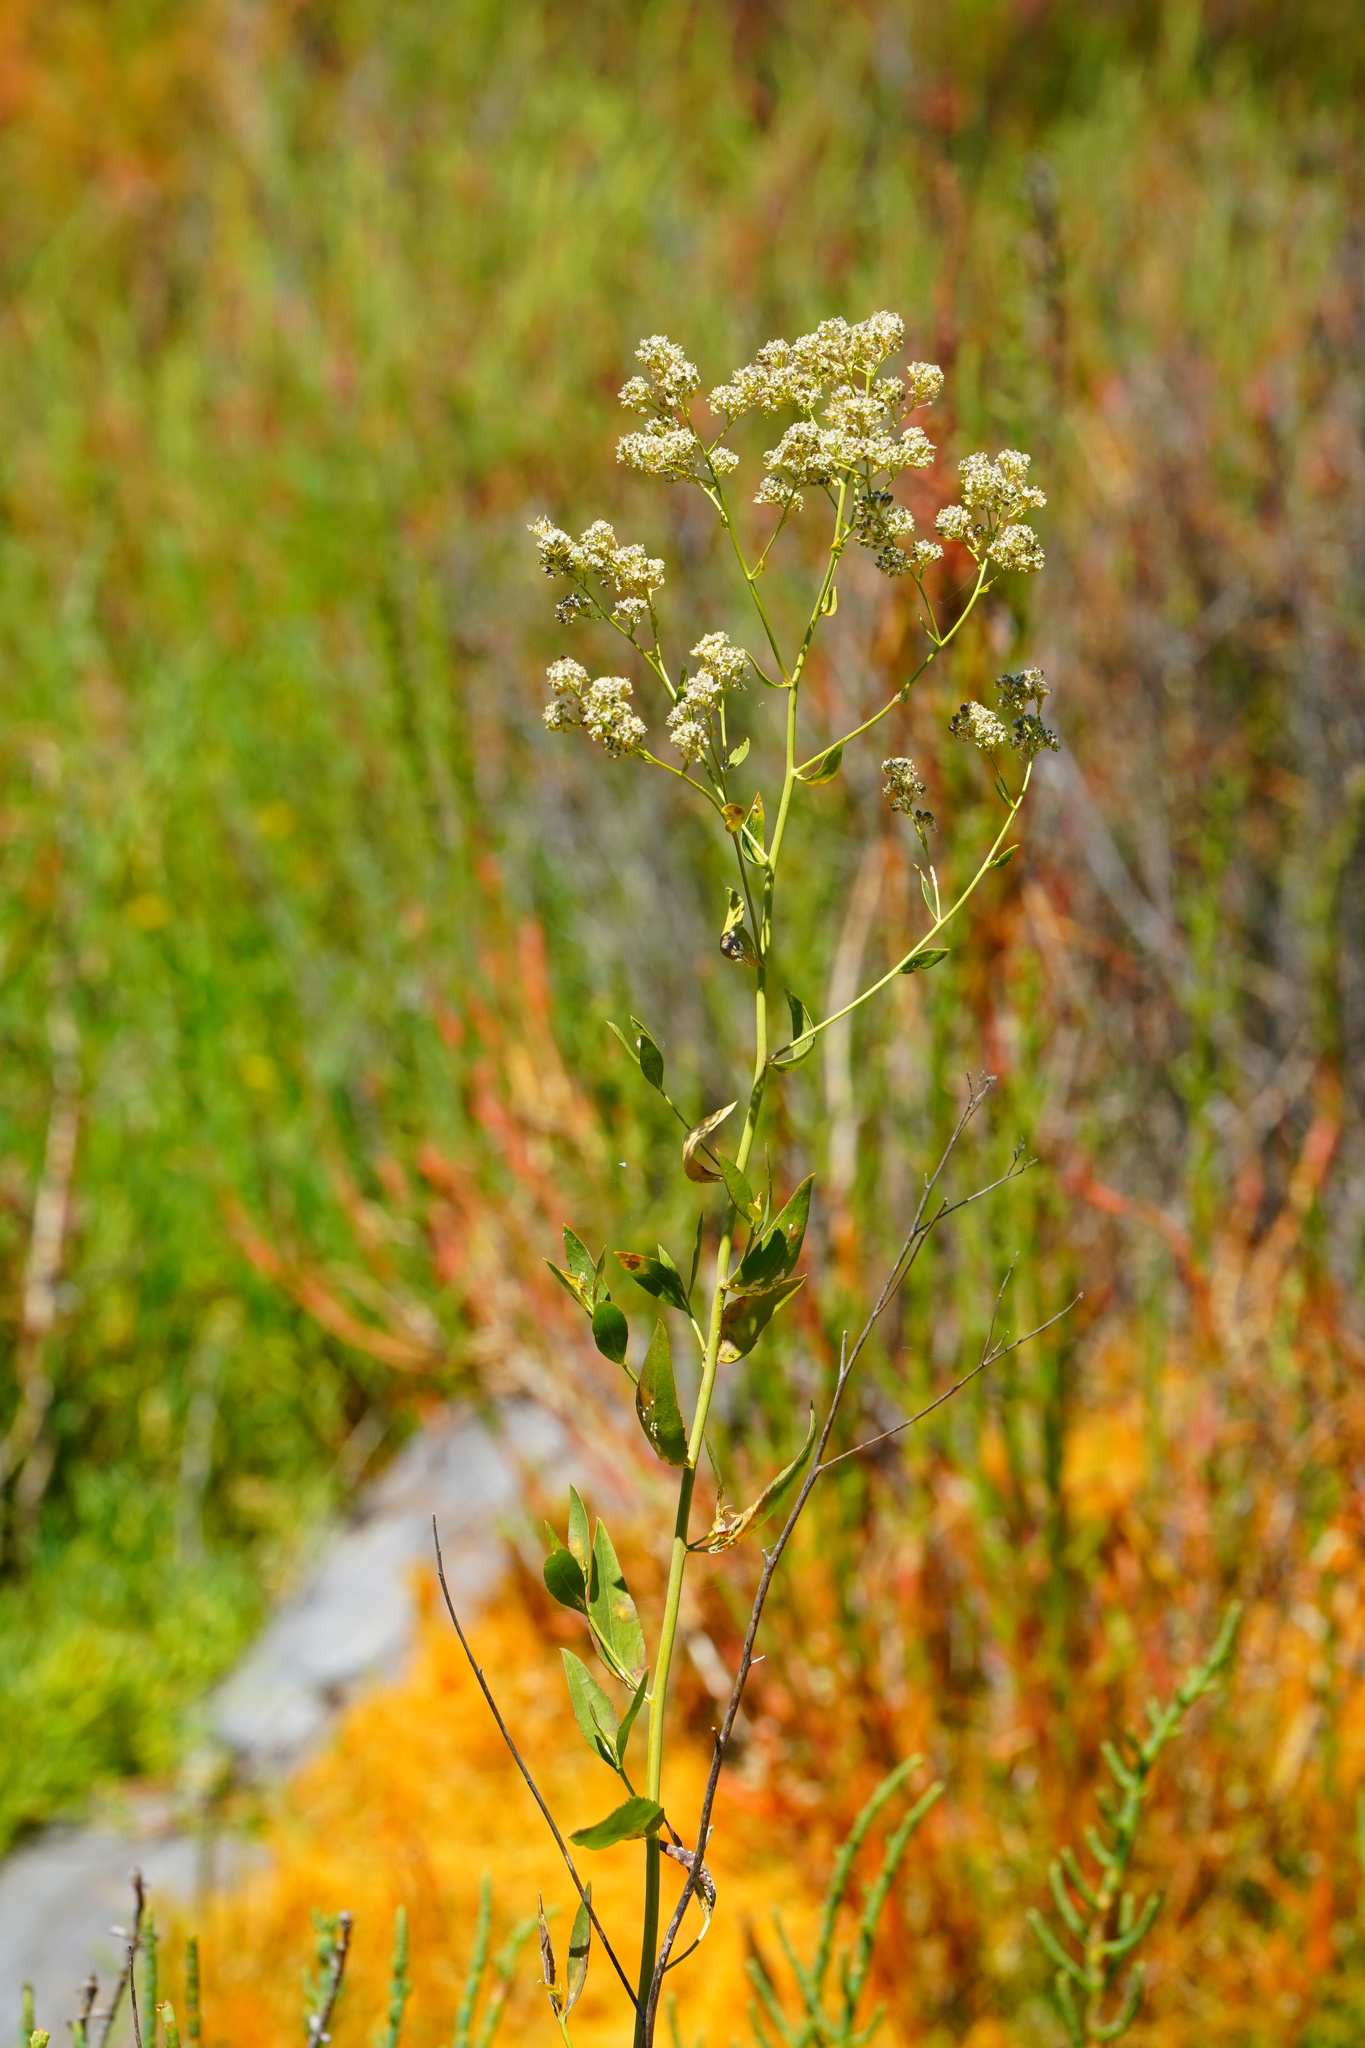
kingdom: Plantae
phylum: Tracheophyta
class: Magnoliopsida
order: Brassicales
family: Brassicaceae
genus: Lepidium
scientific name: Lepidium latifolium
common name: Dittander
